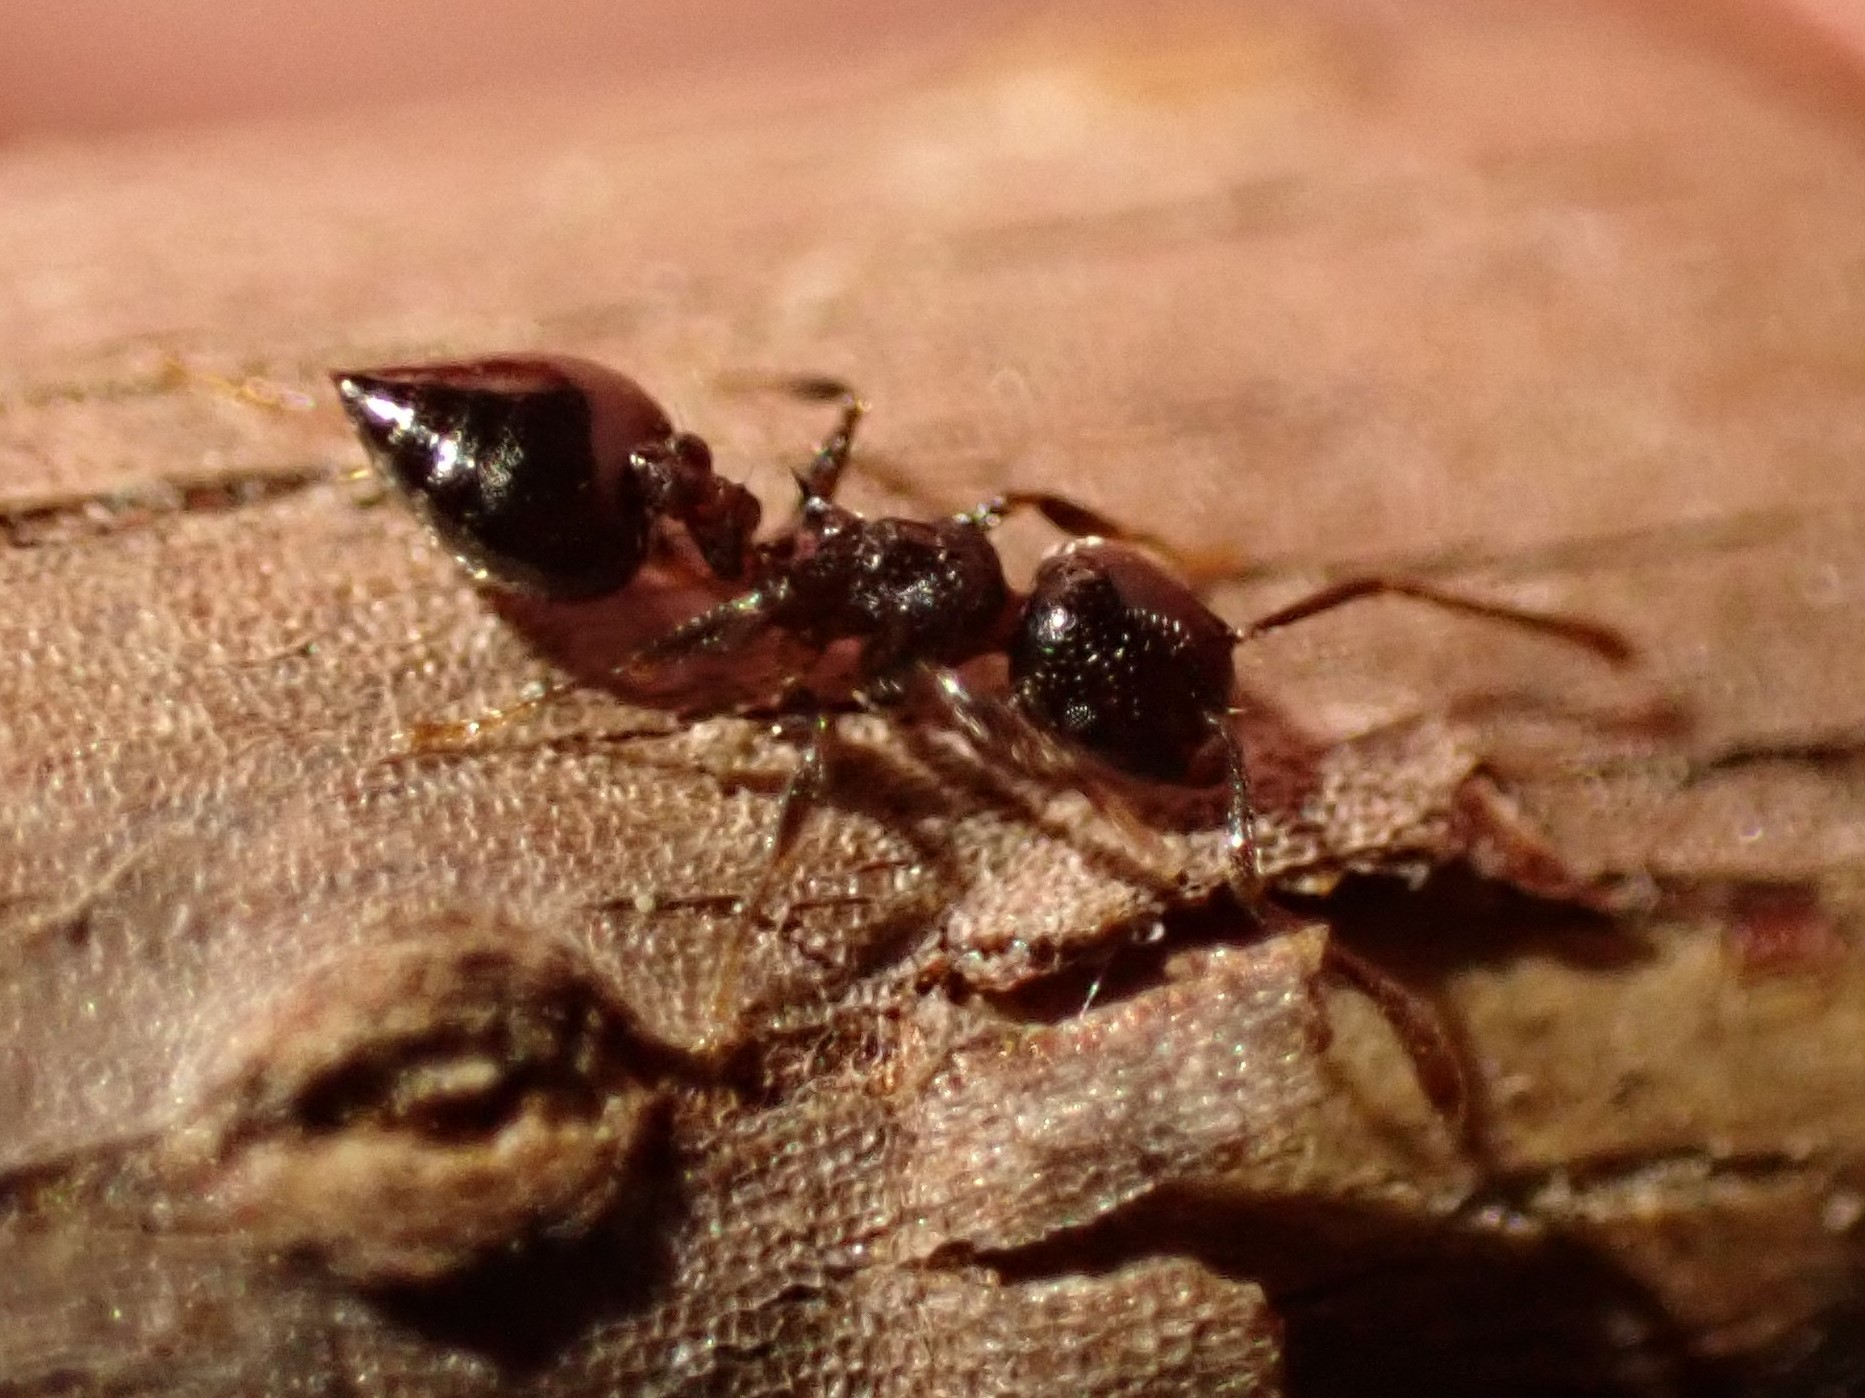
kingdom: Animalia
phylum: Arthropoda
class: Insecta
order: Hymenoptera
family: Formicidae
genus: Crematogaster
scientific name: Crematogaster
